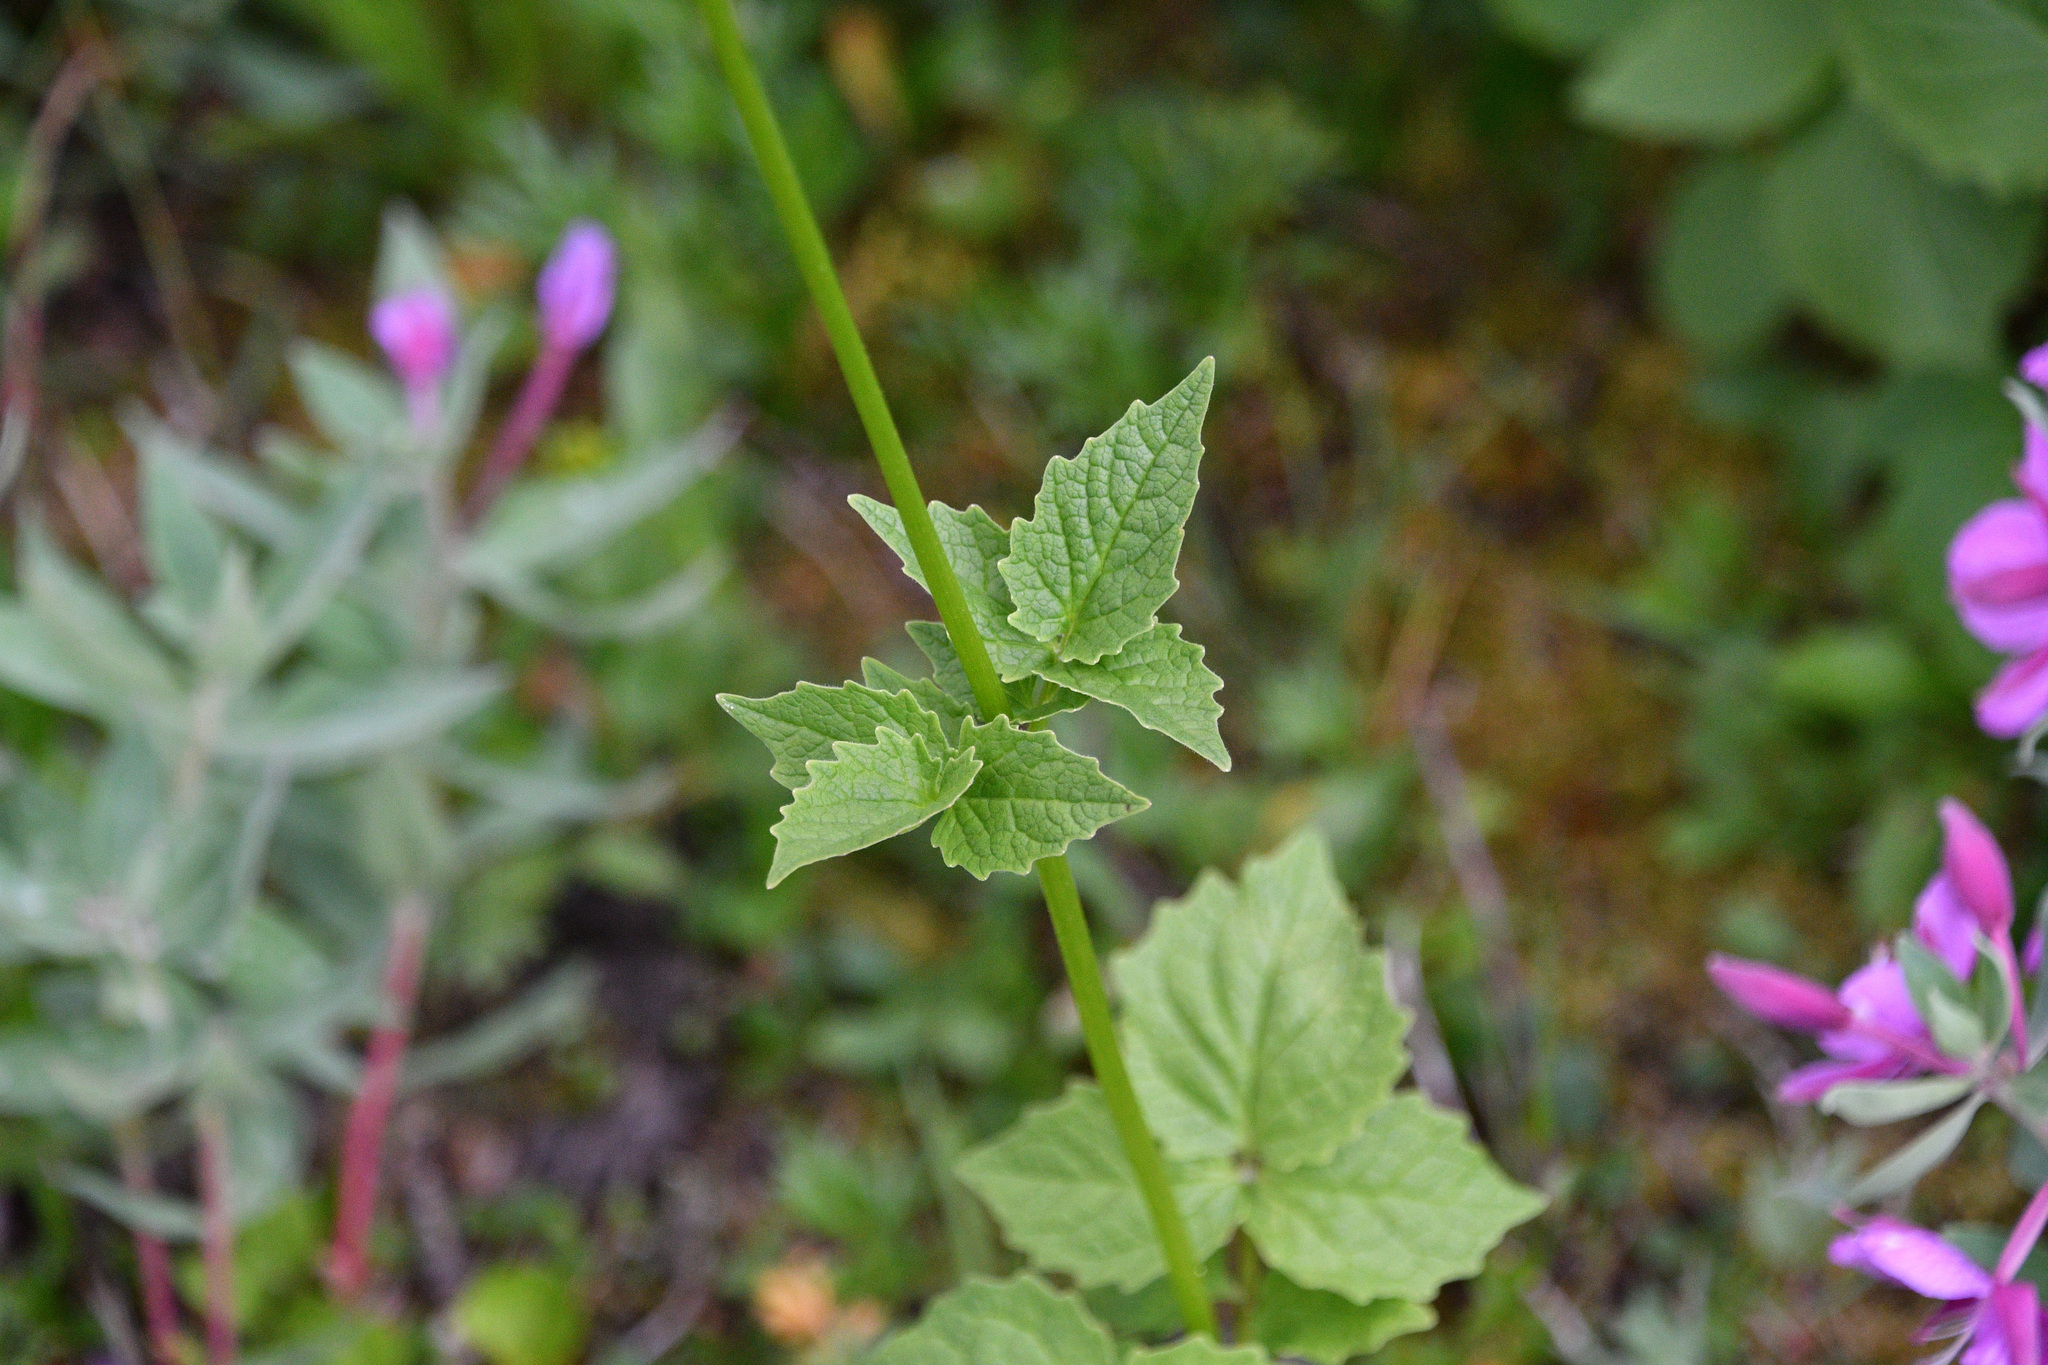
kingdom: Plantae
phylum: Tracheophyta
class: Magnoliopsida
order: Dipsacales
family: Caprifoliaceae
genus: Valeriana
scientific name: Valeriana sitchensis
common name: Pacific valerian
